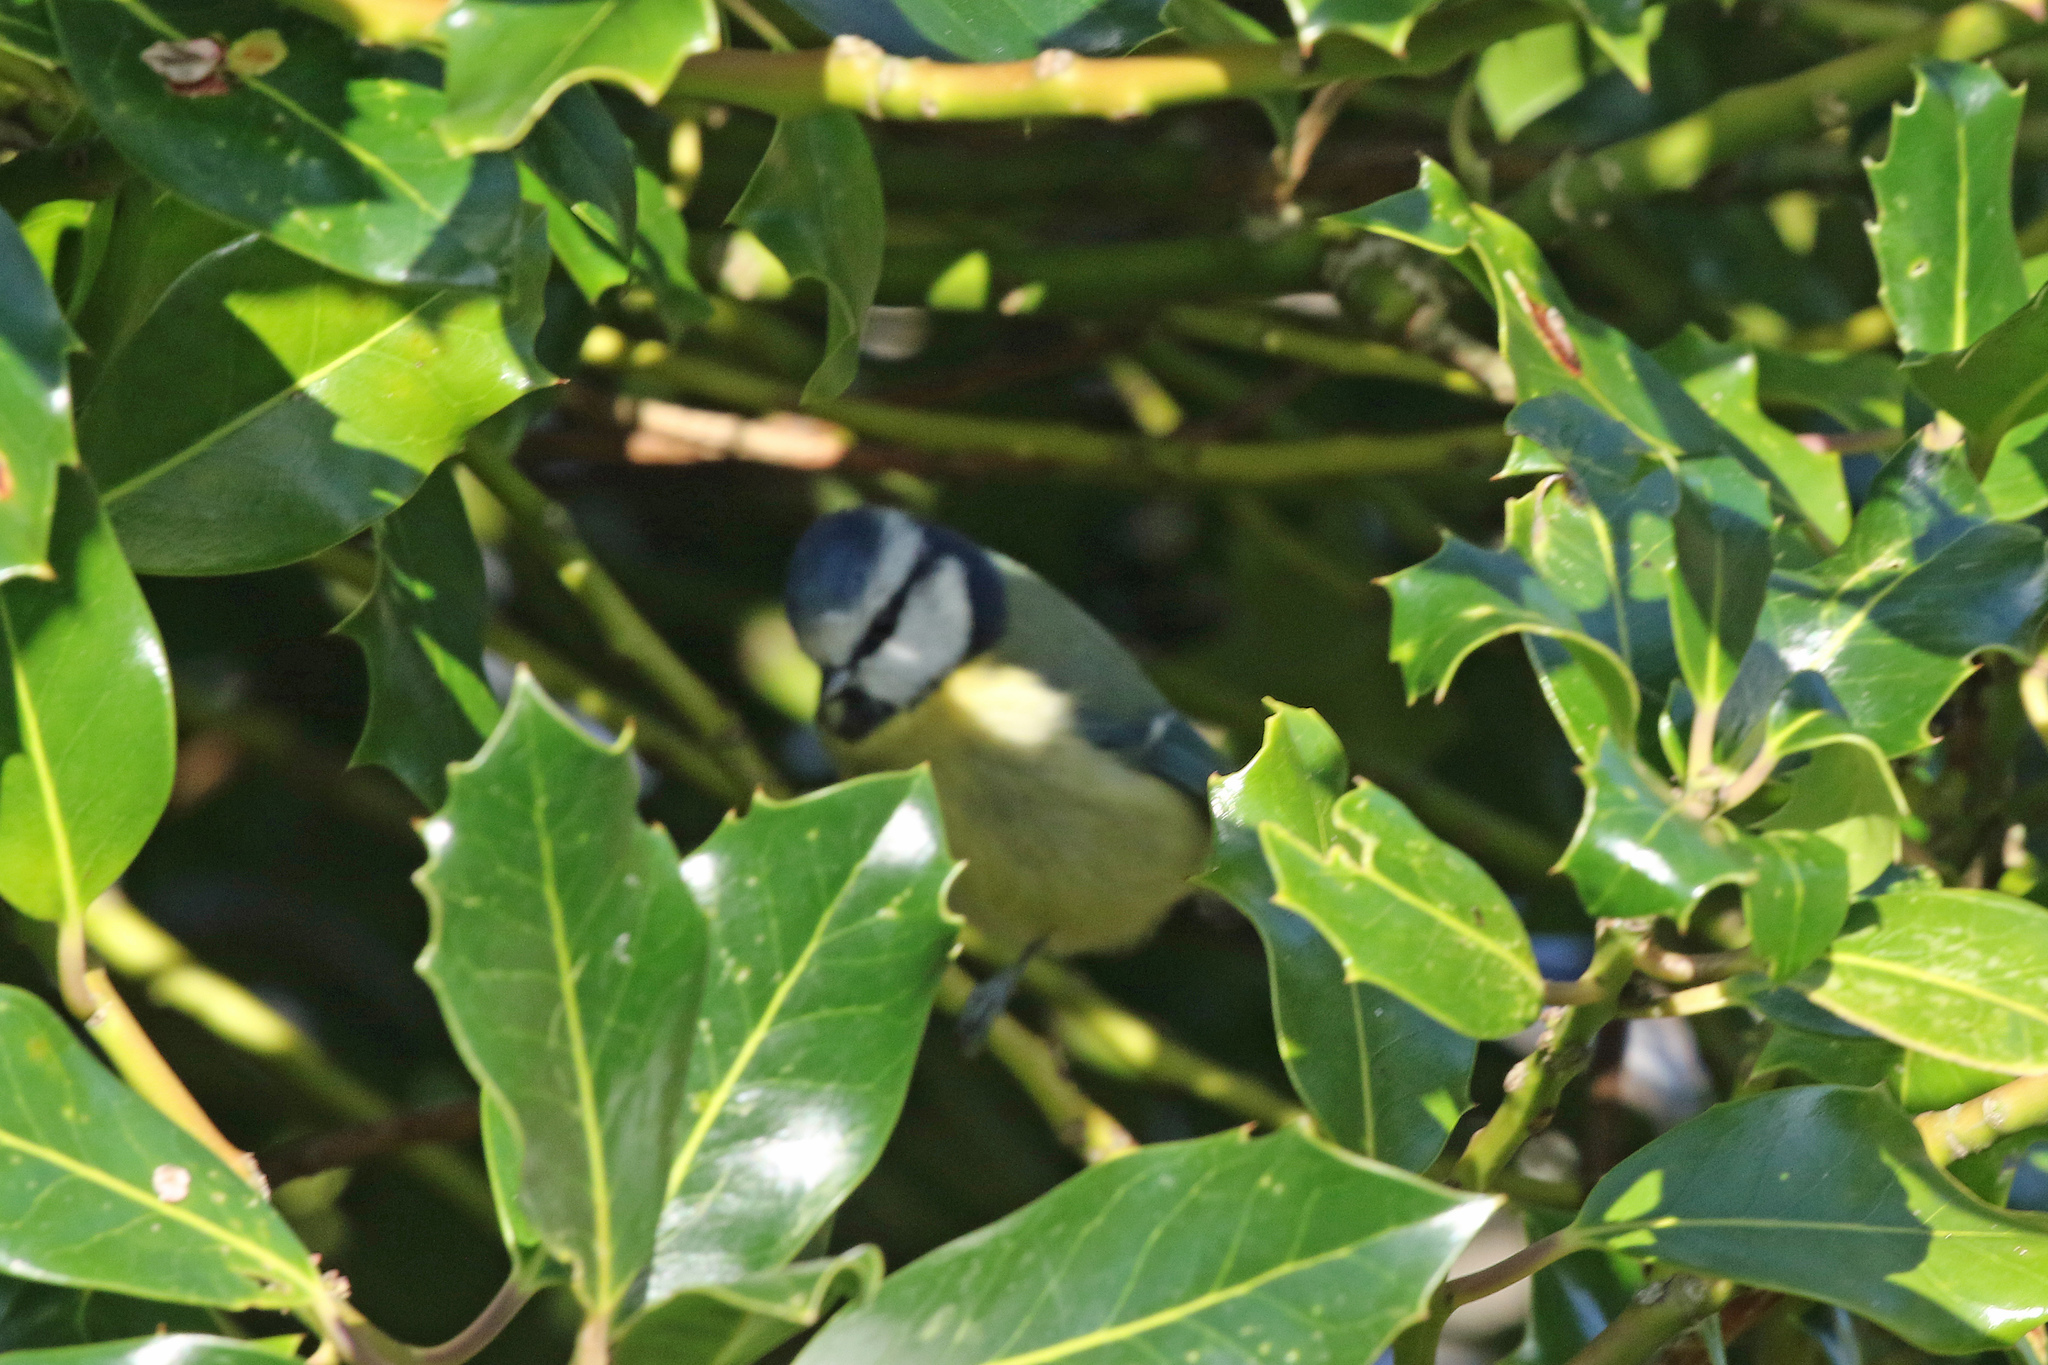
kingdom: Animalia
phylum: Chordata
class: Aves
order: Passeriformes
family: Paridae
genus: Cyanistes
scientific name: Cyanistes caeruleus
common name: Eurasian blue tit
